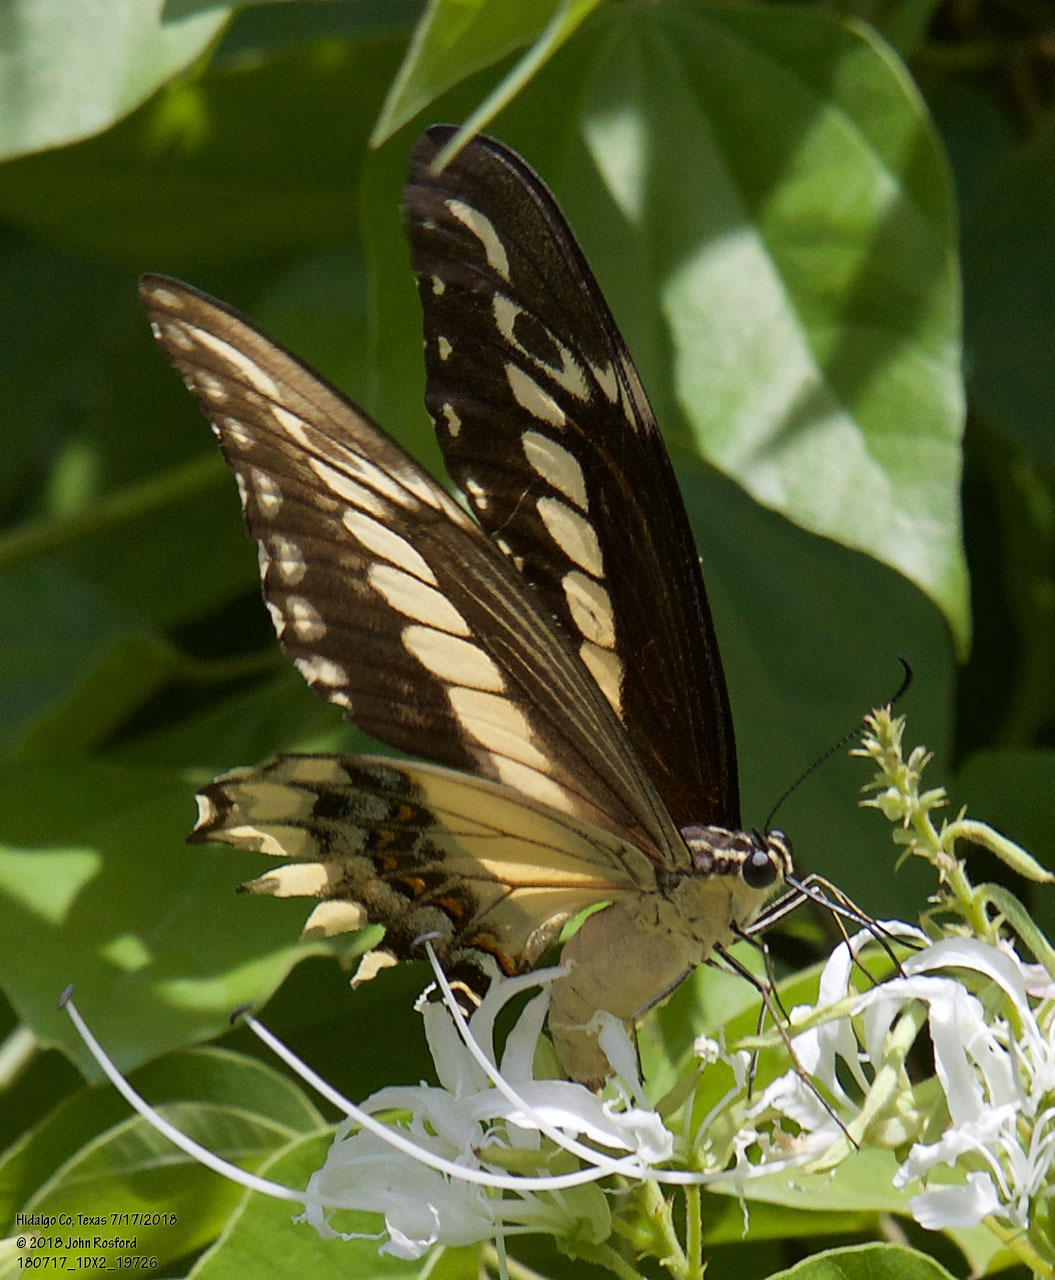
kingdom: Animalia
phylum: Arthropoda
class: Insecta
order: Lepidoptera
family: Papilionidae
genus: Papilio
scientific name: Papilio ornythion
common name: Ornythion swallowtail
